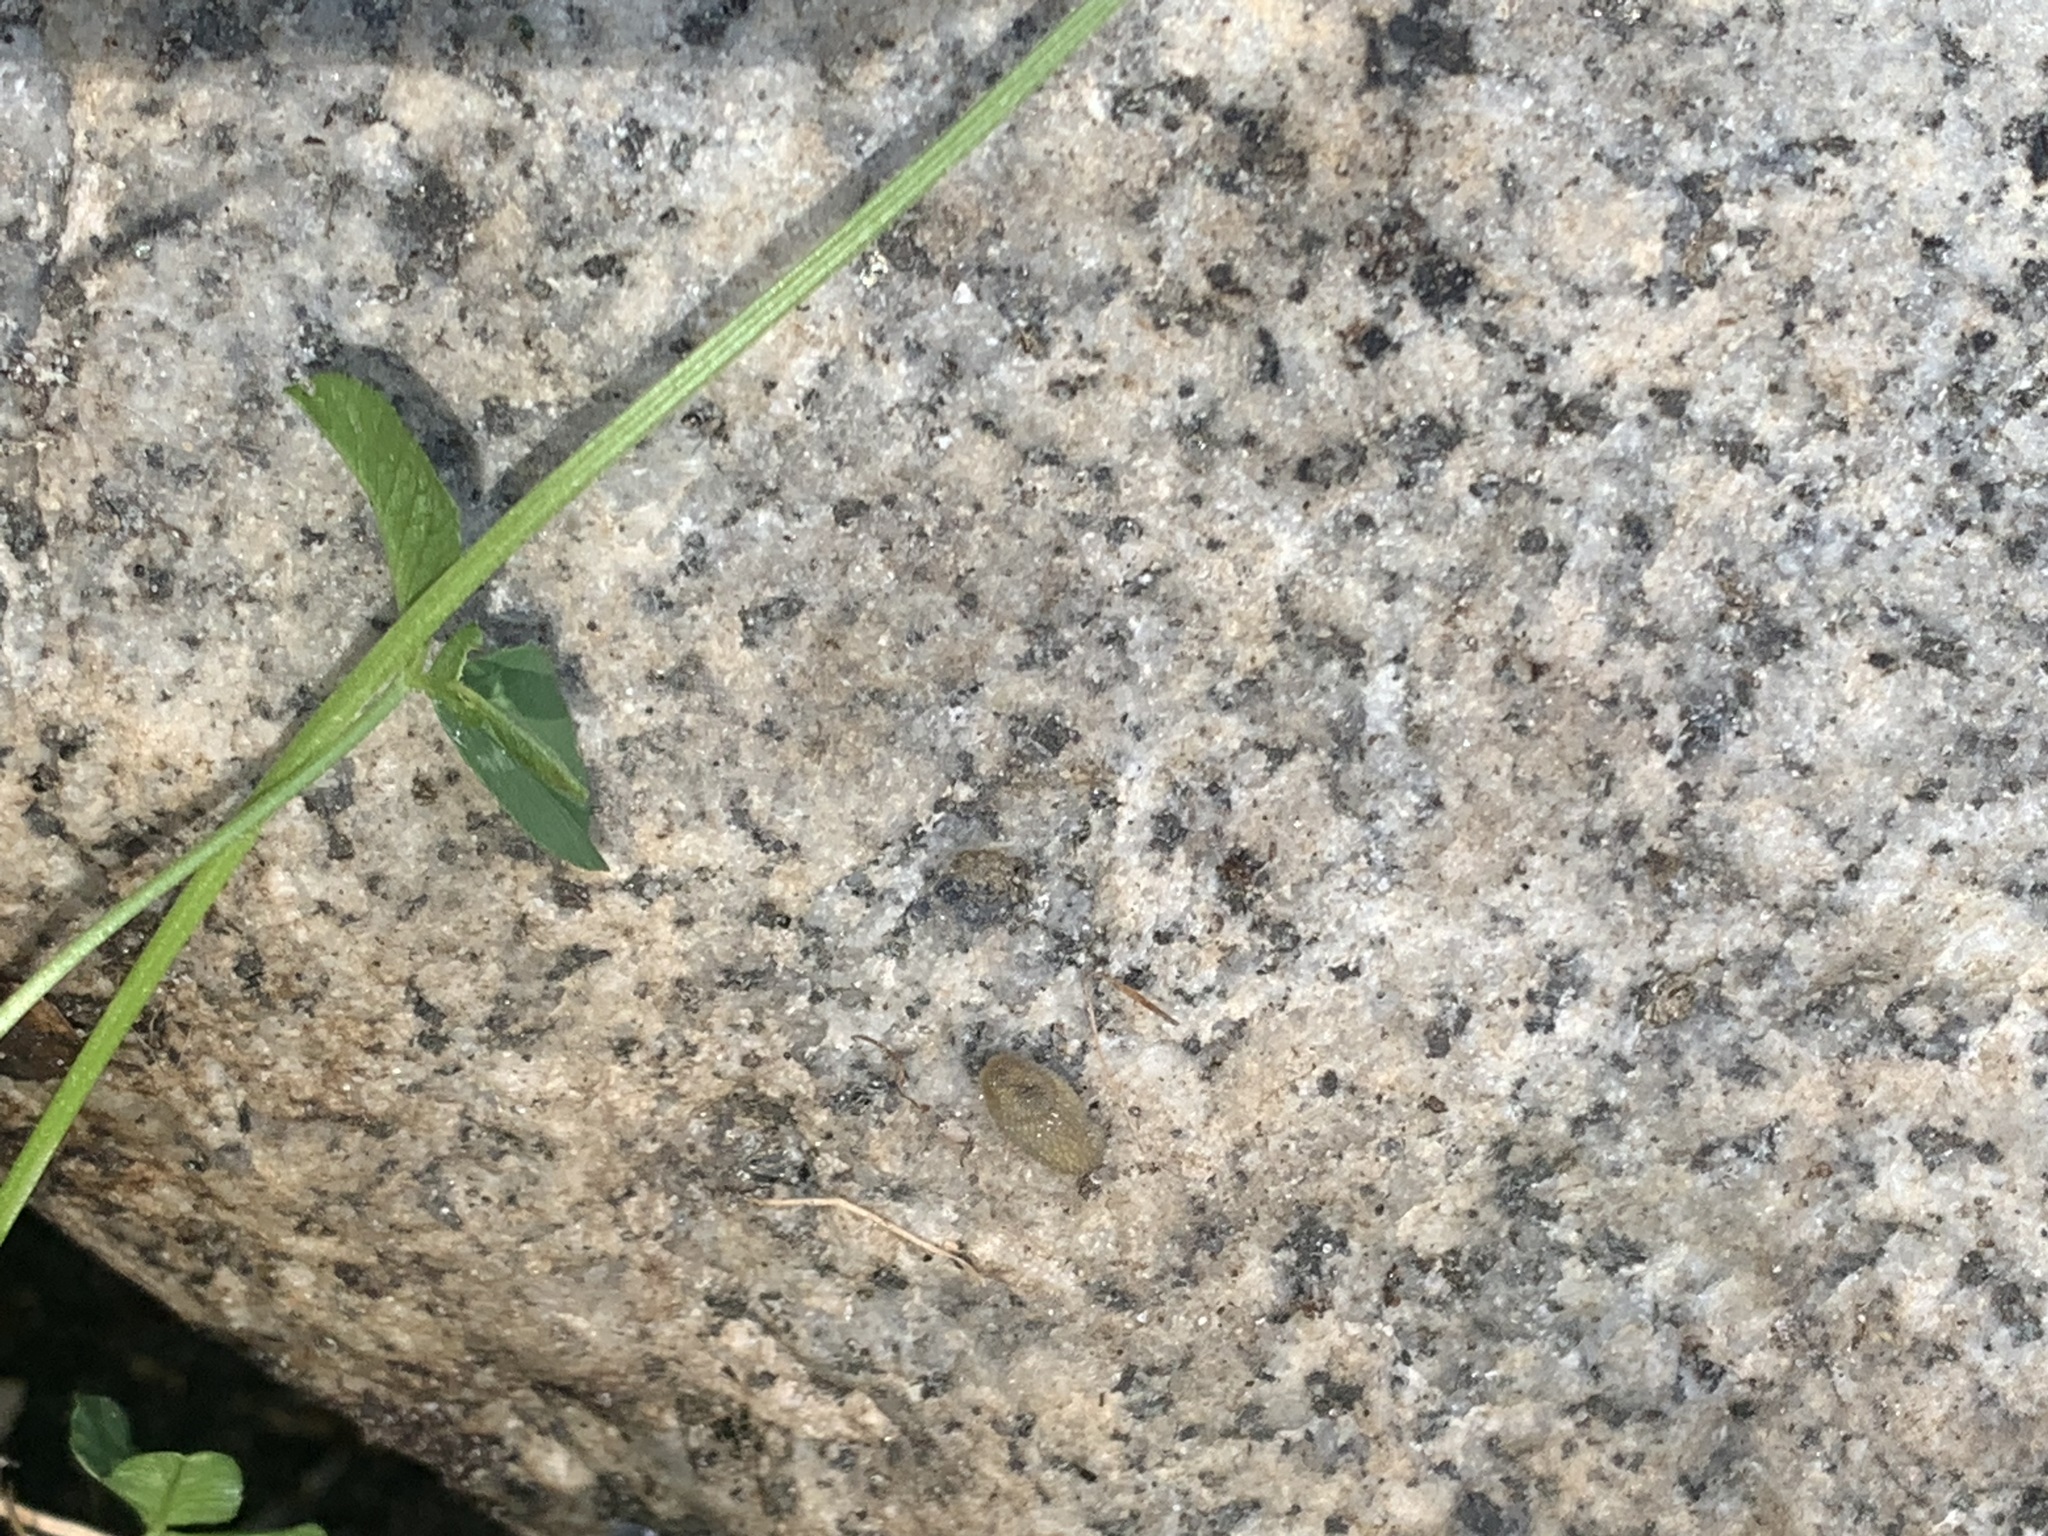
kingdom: Animalia
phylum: Mollusca
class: Gastropoda
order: Stylommatophora
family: Arionidae
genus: Arion
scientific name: Arion intermedius
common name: Hedgehog slug
